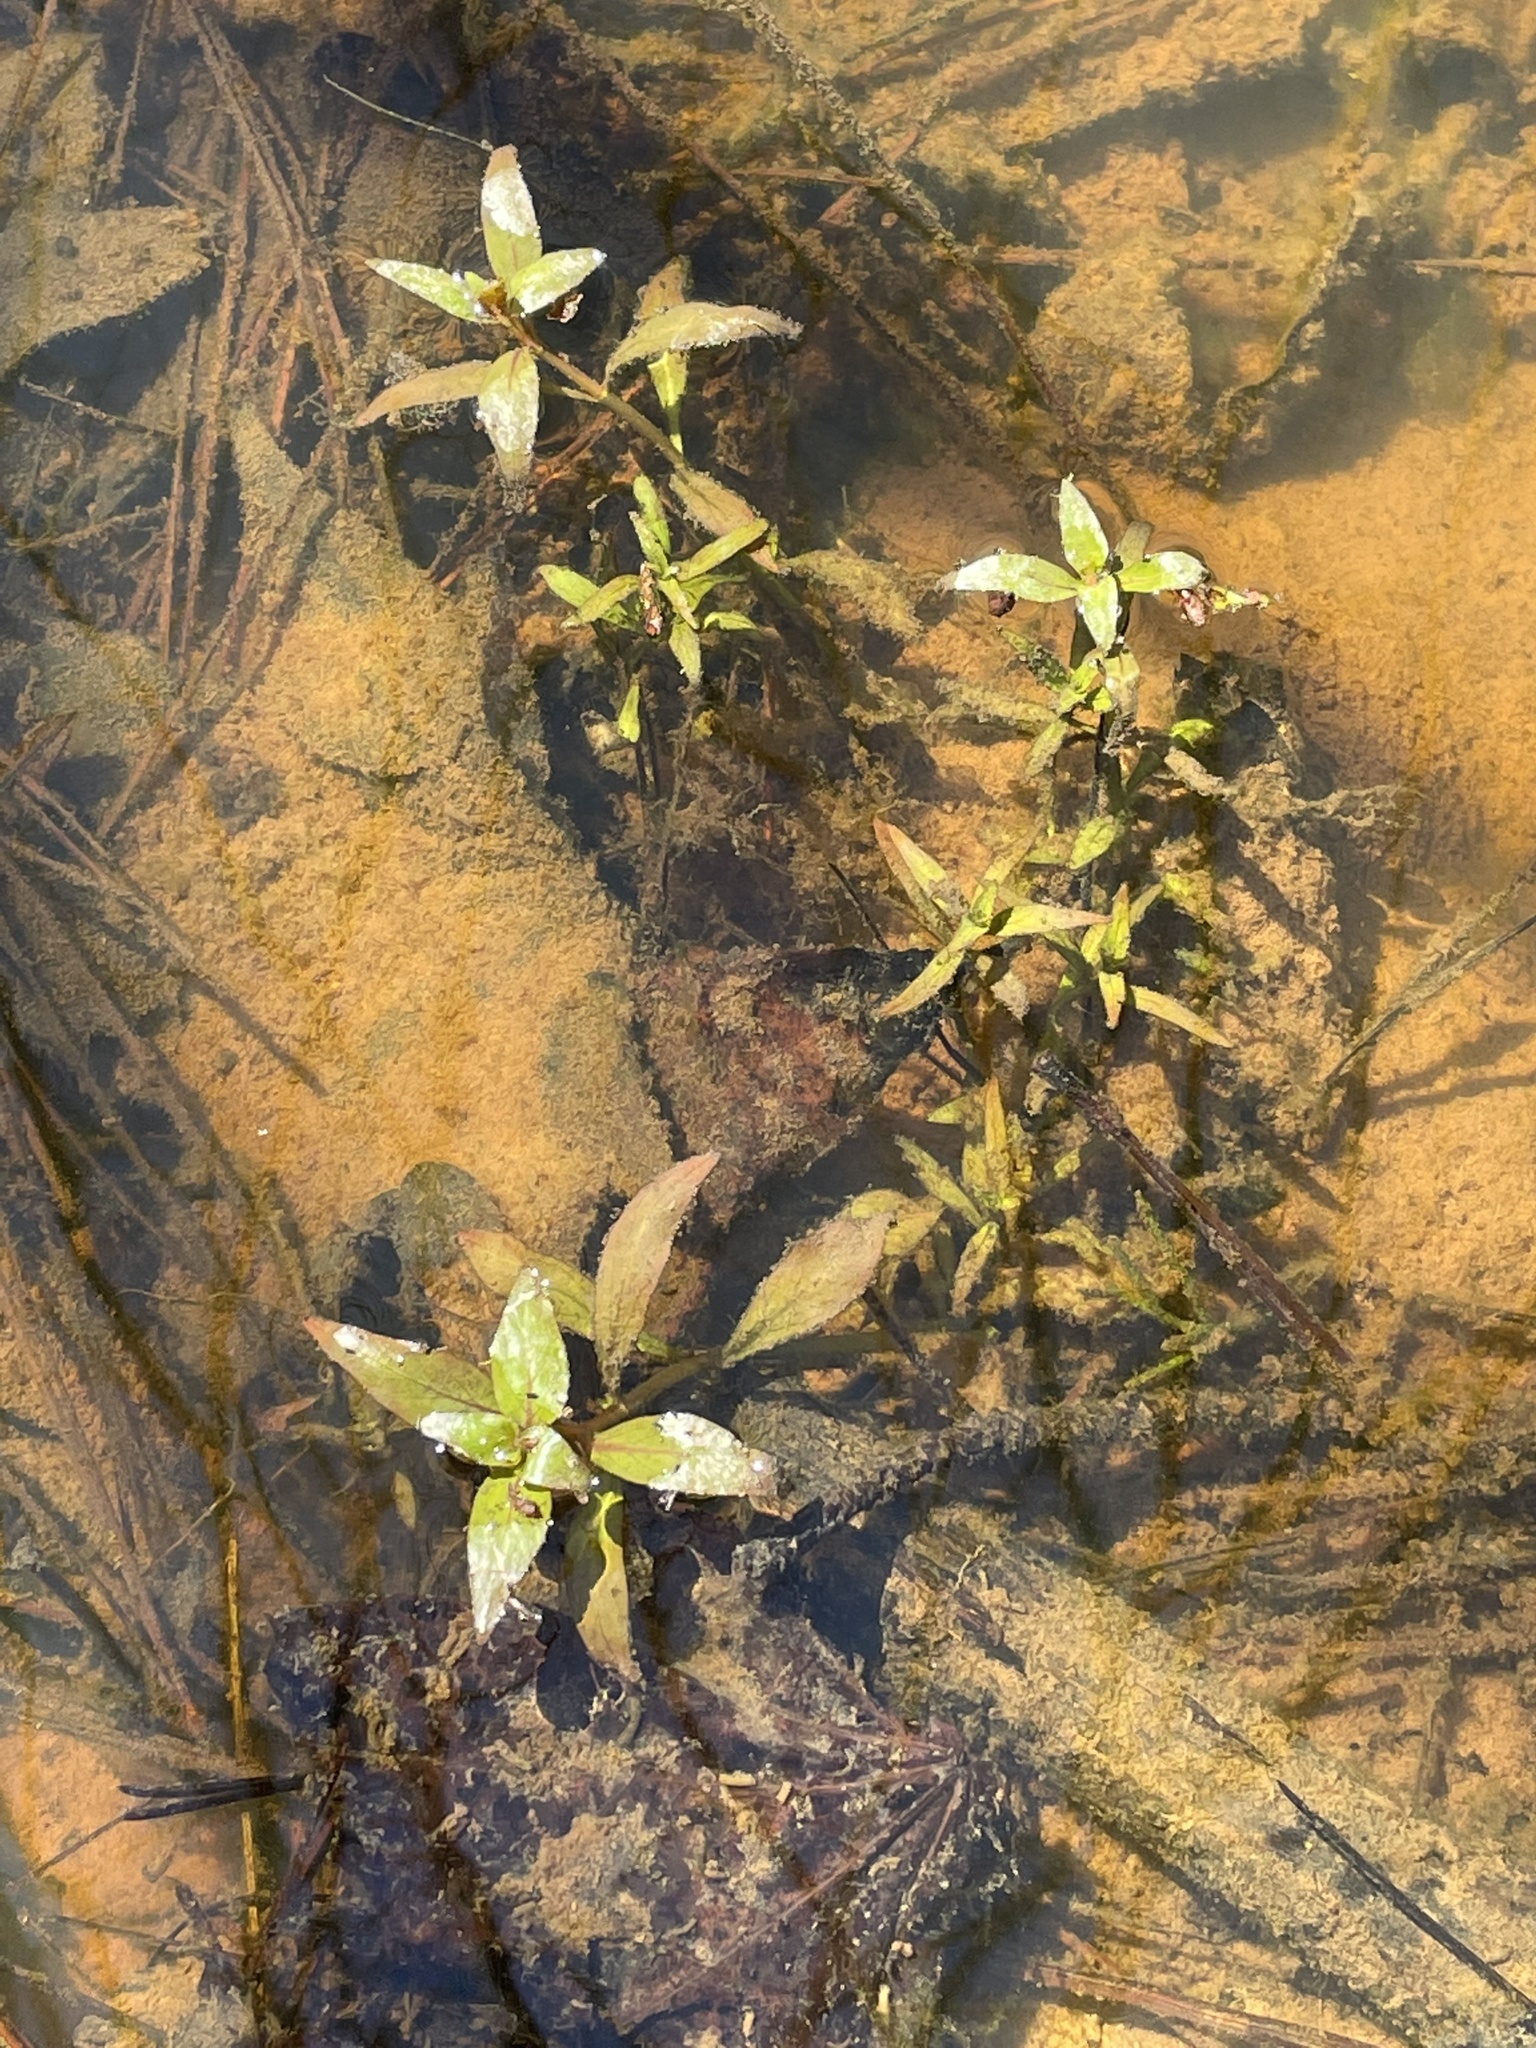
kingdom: Plantae
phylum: Tracheophyta
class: Magnoliopsida
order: Myrtales
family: Onagraceae
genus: Ludwigia
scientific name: Ludwigia palustris
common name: Hampshire-purslane
